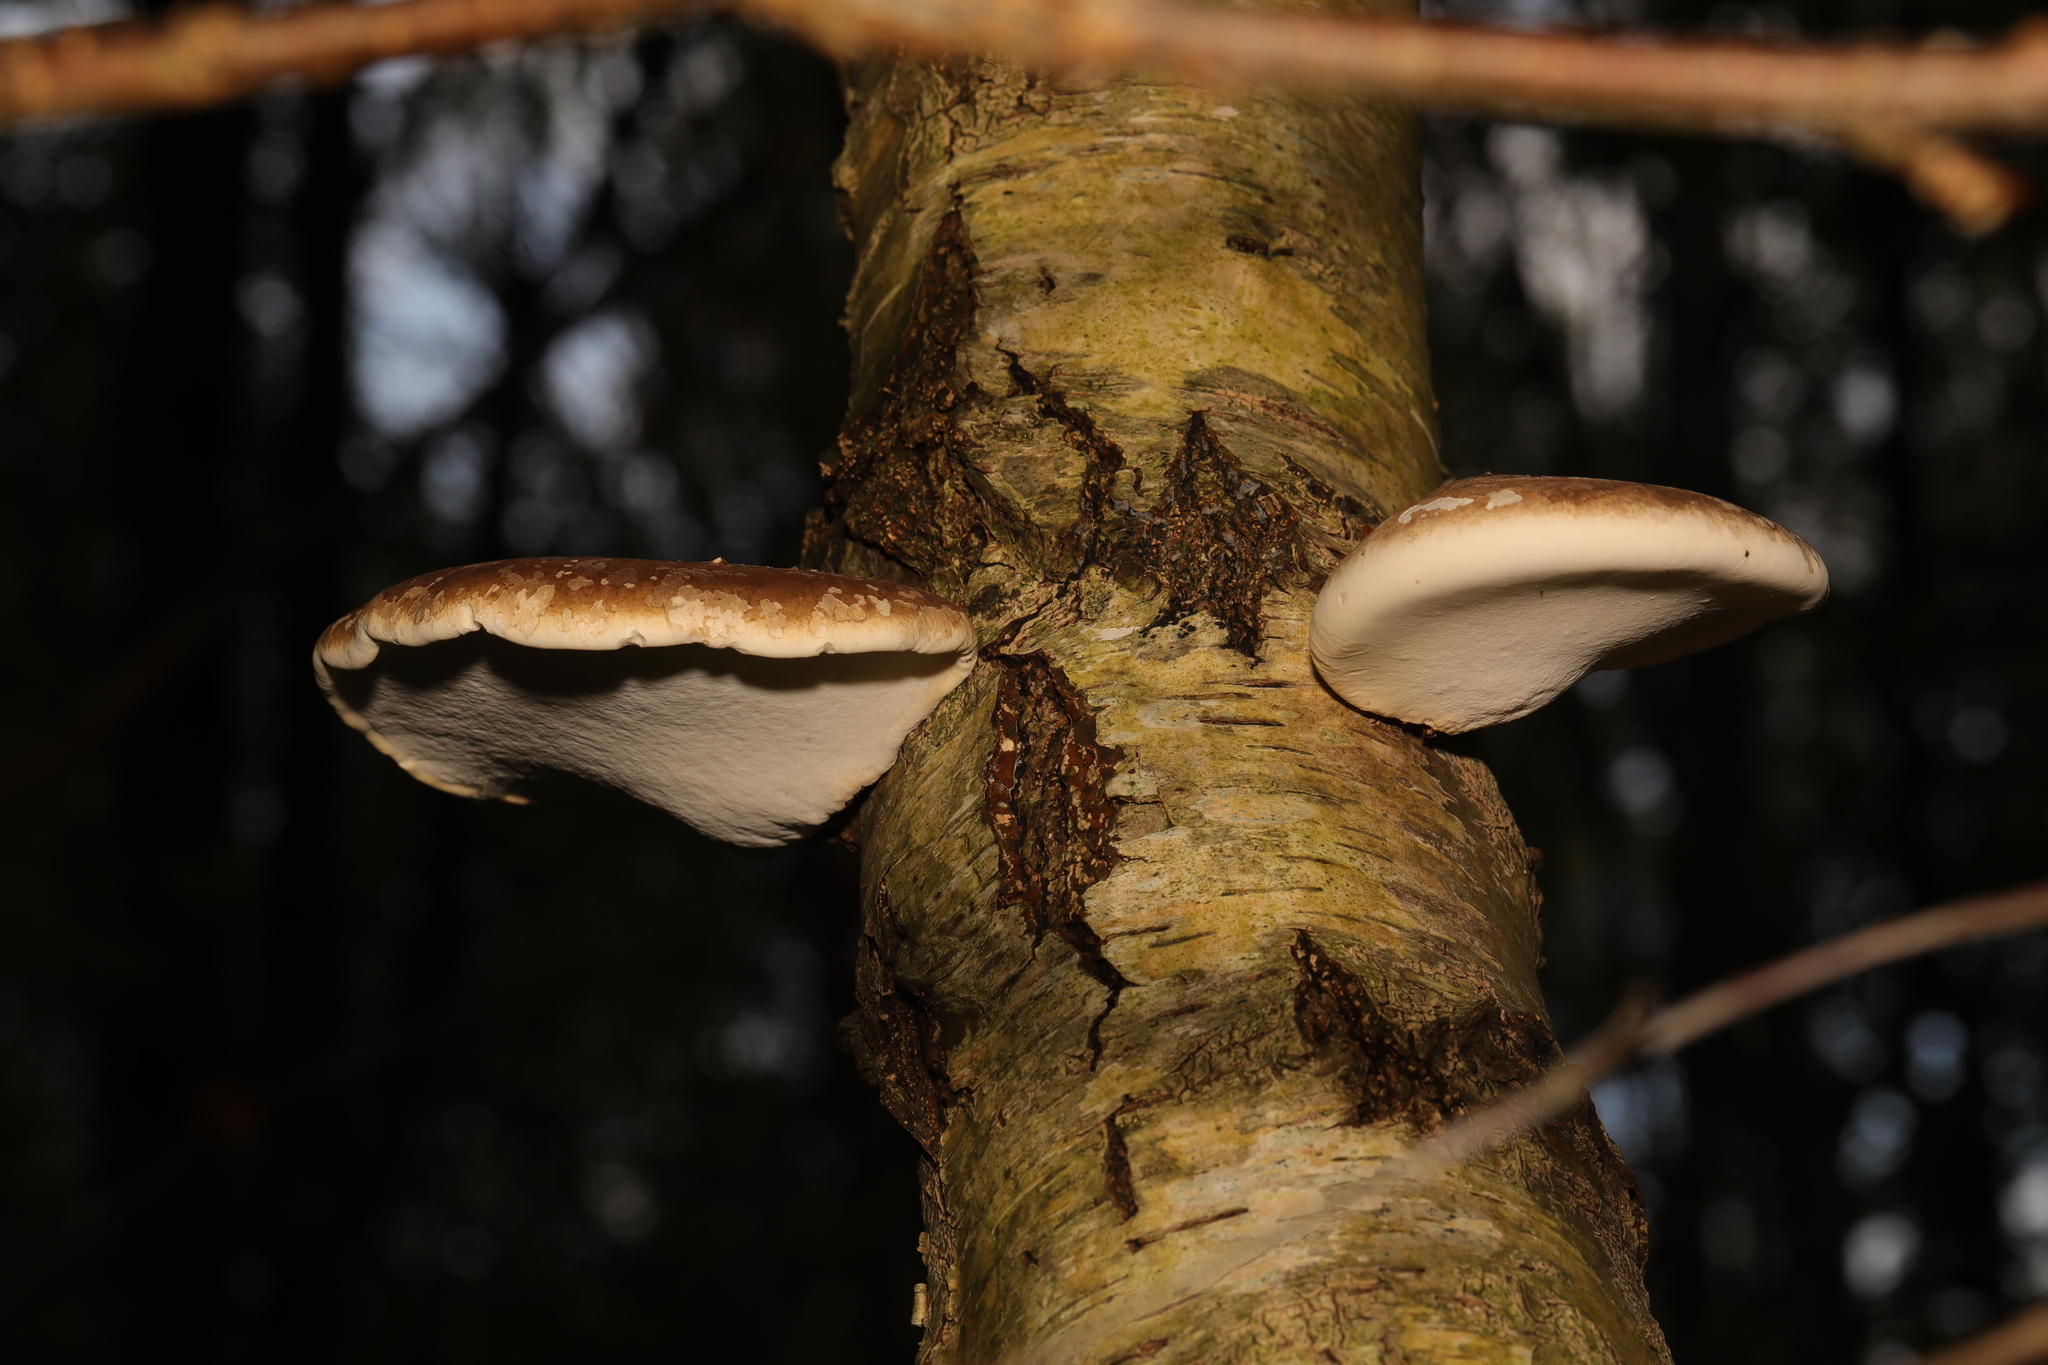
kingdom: Fungi
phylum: Basidiomycota
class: Agaricomycetes
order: Polyporales
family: Fomitopsidaceae
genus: Fomitopsis
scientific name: Fomitopsis betulina
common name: Birch polypore
